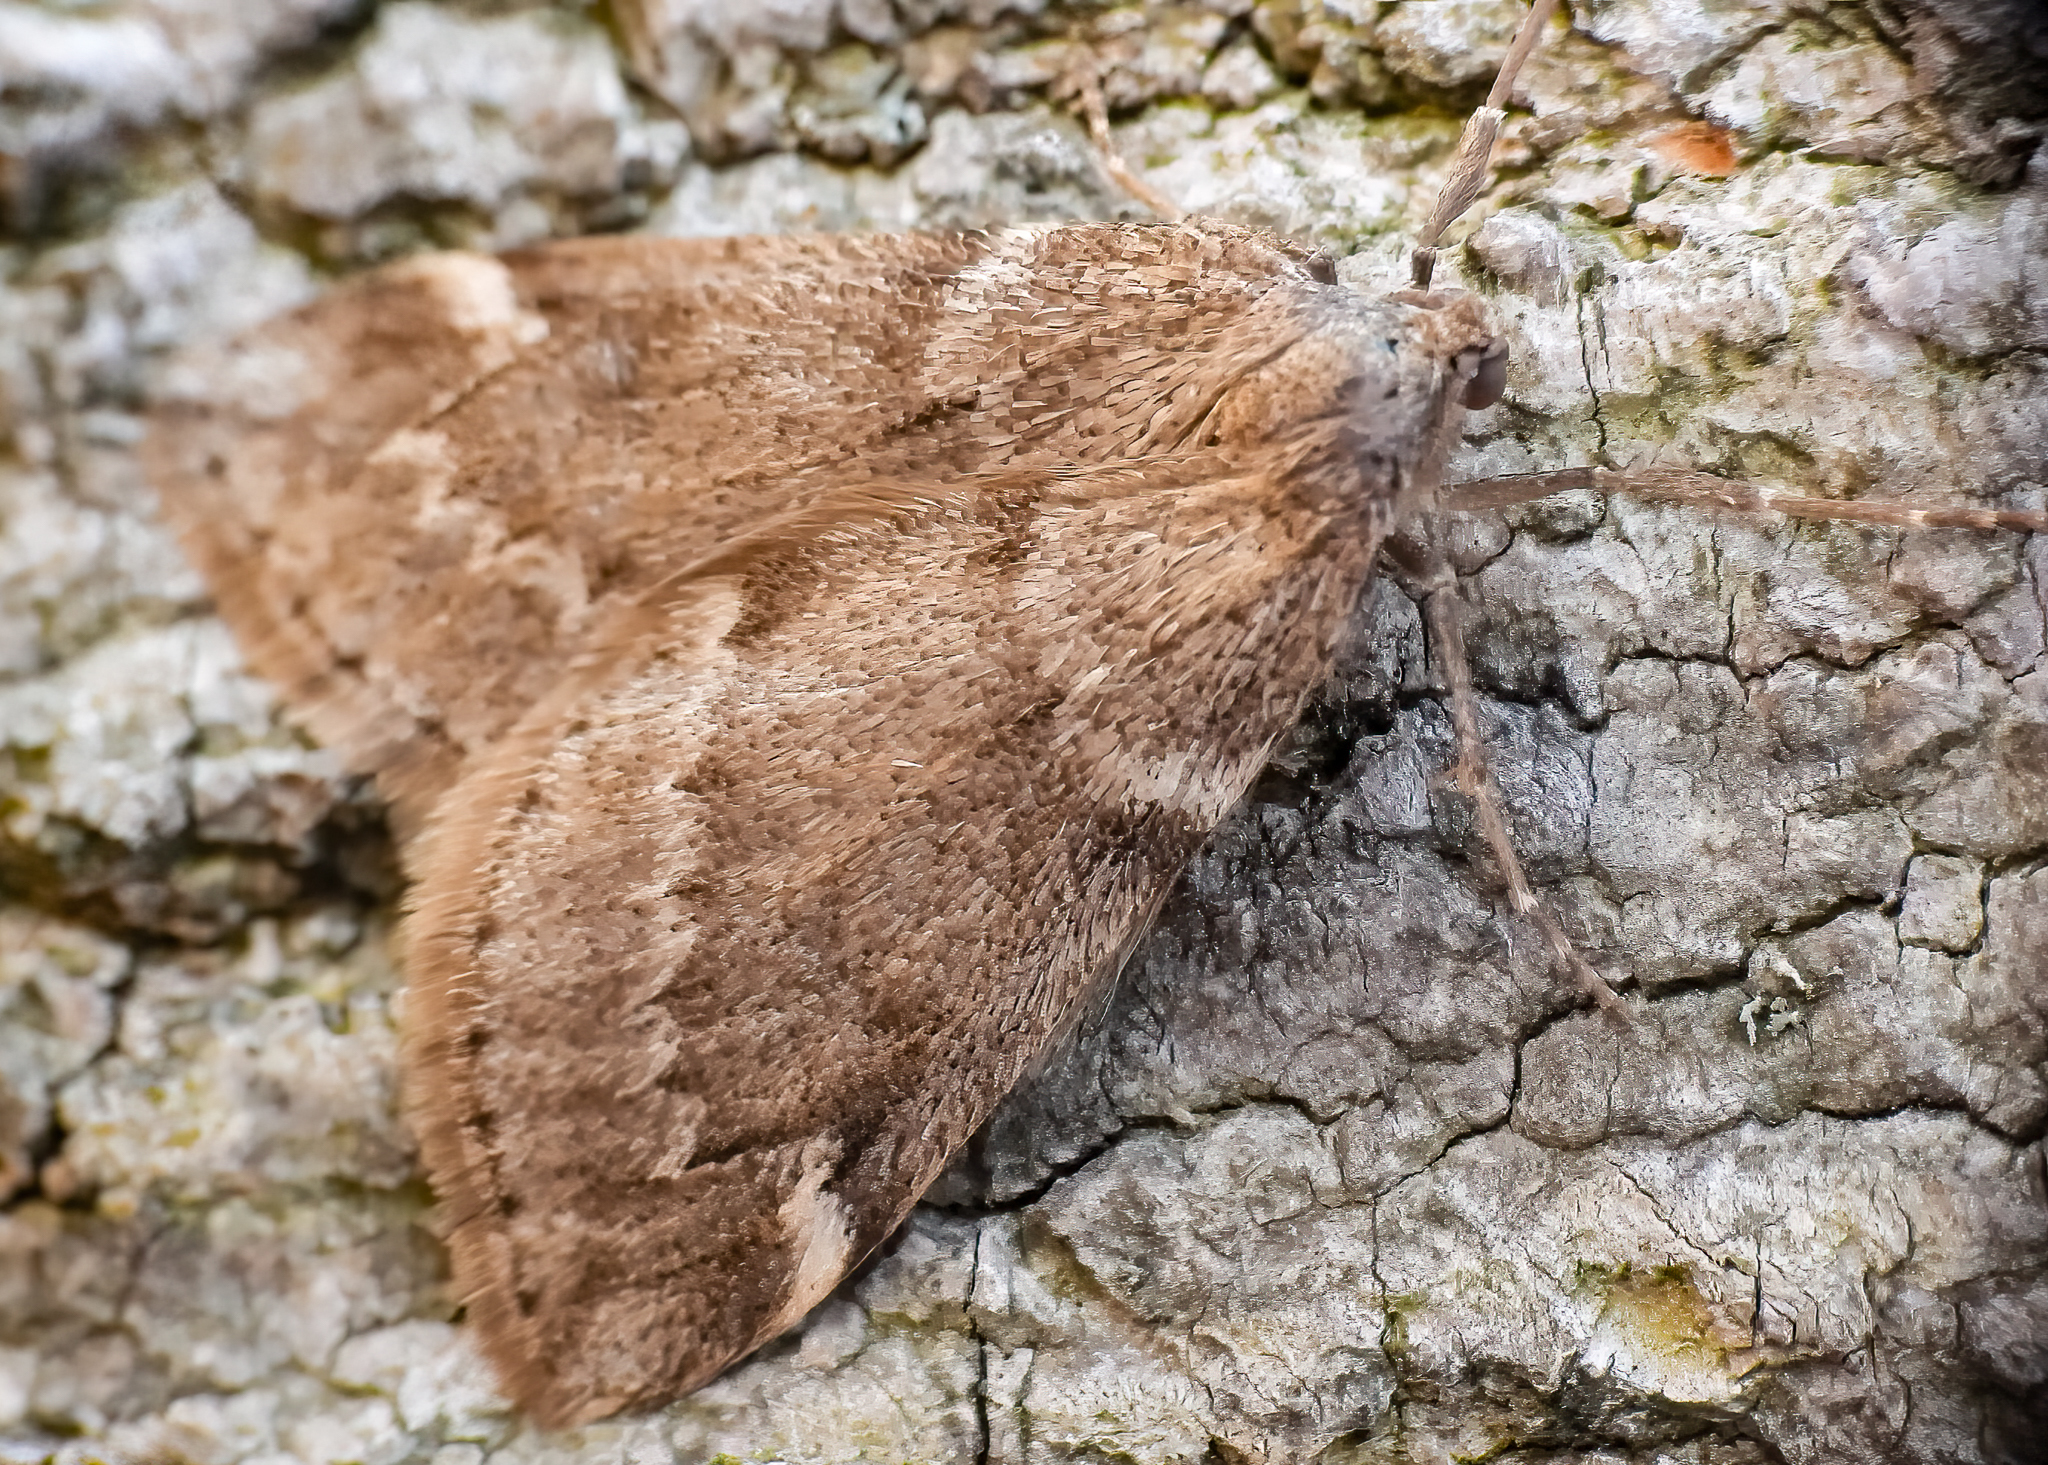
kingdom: Animalia
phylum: Arthropoda
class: Insecta
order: Lepidoptera
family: Geometridae
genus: Alsophila
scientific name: Alsophila pometaria
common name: Fall cankerworm
